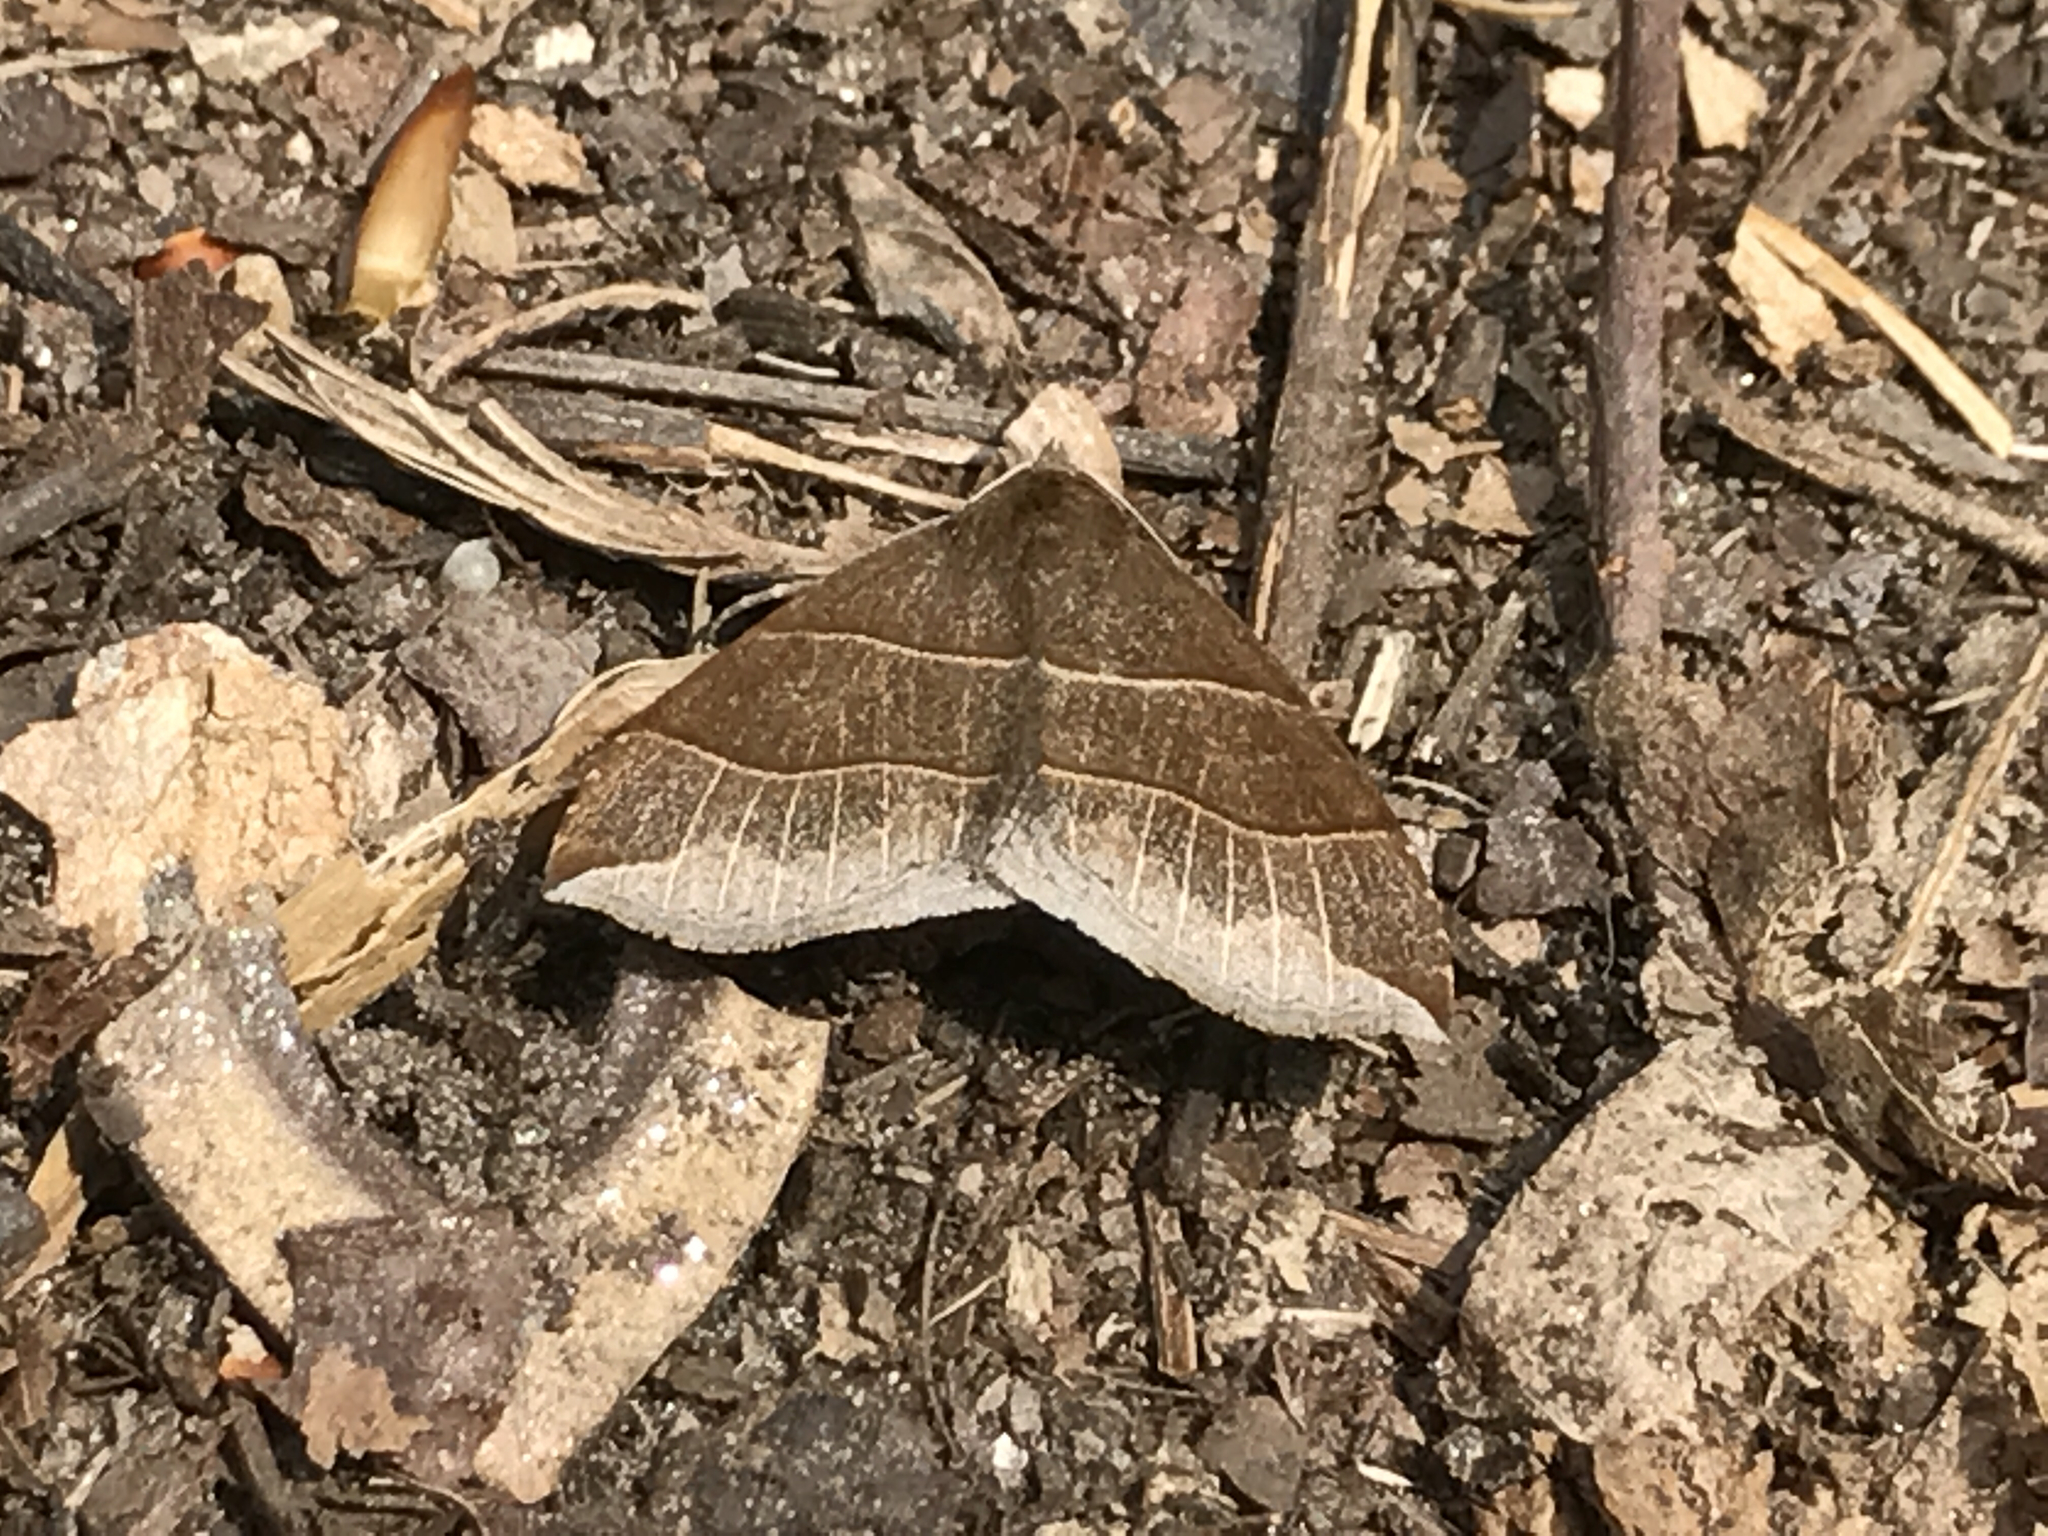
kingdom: Animalia
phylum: Arthropoda
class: Insecta
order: Lepidoptera
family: Erebidae
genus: Parallelia
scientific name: Parallelia bistriaris
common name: Maple looper moth
